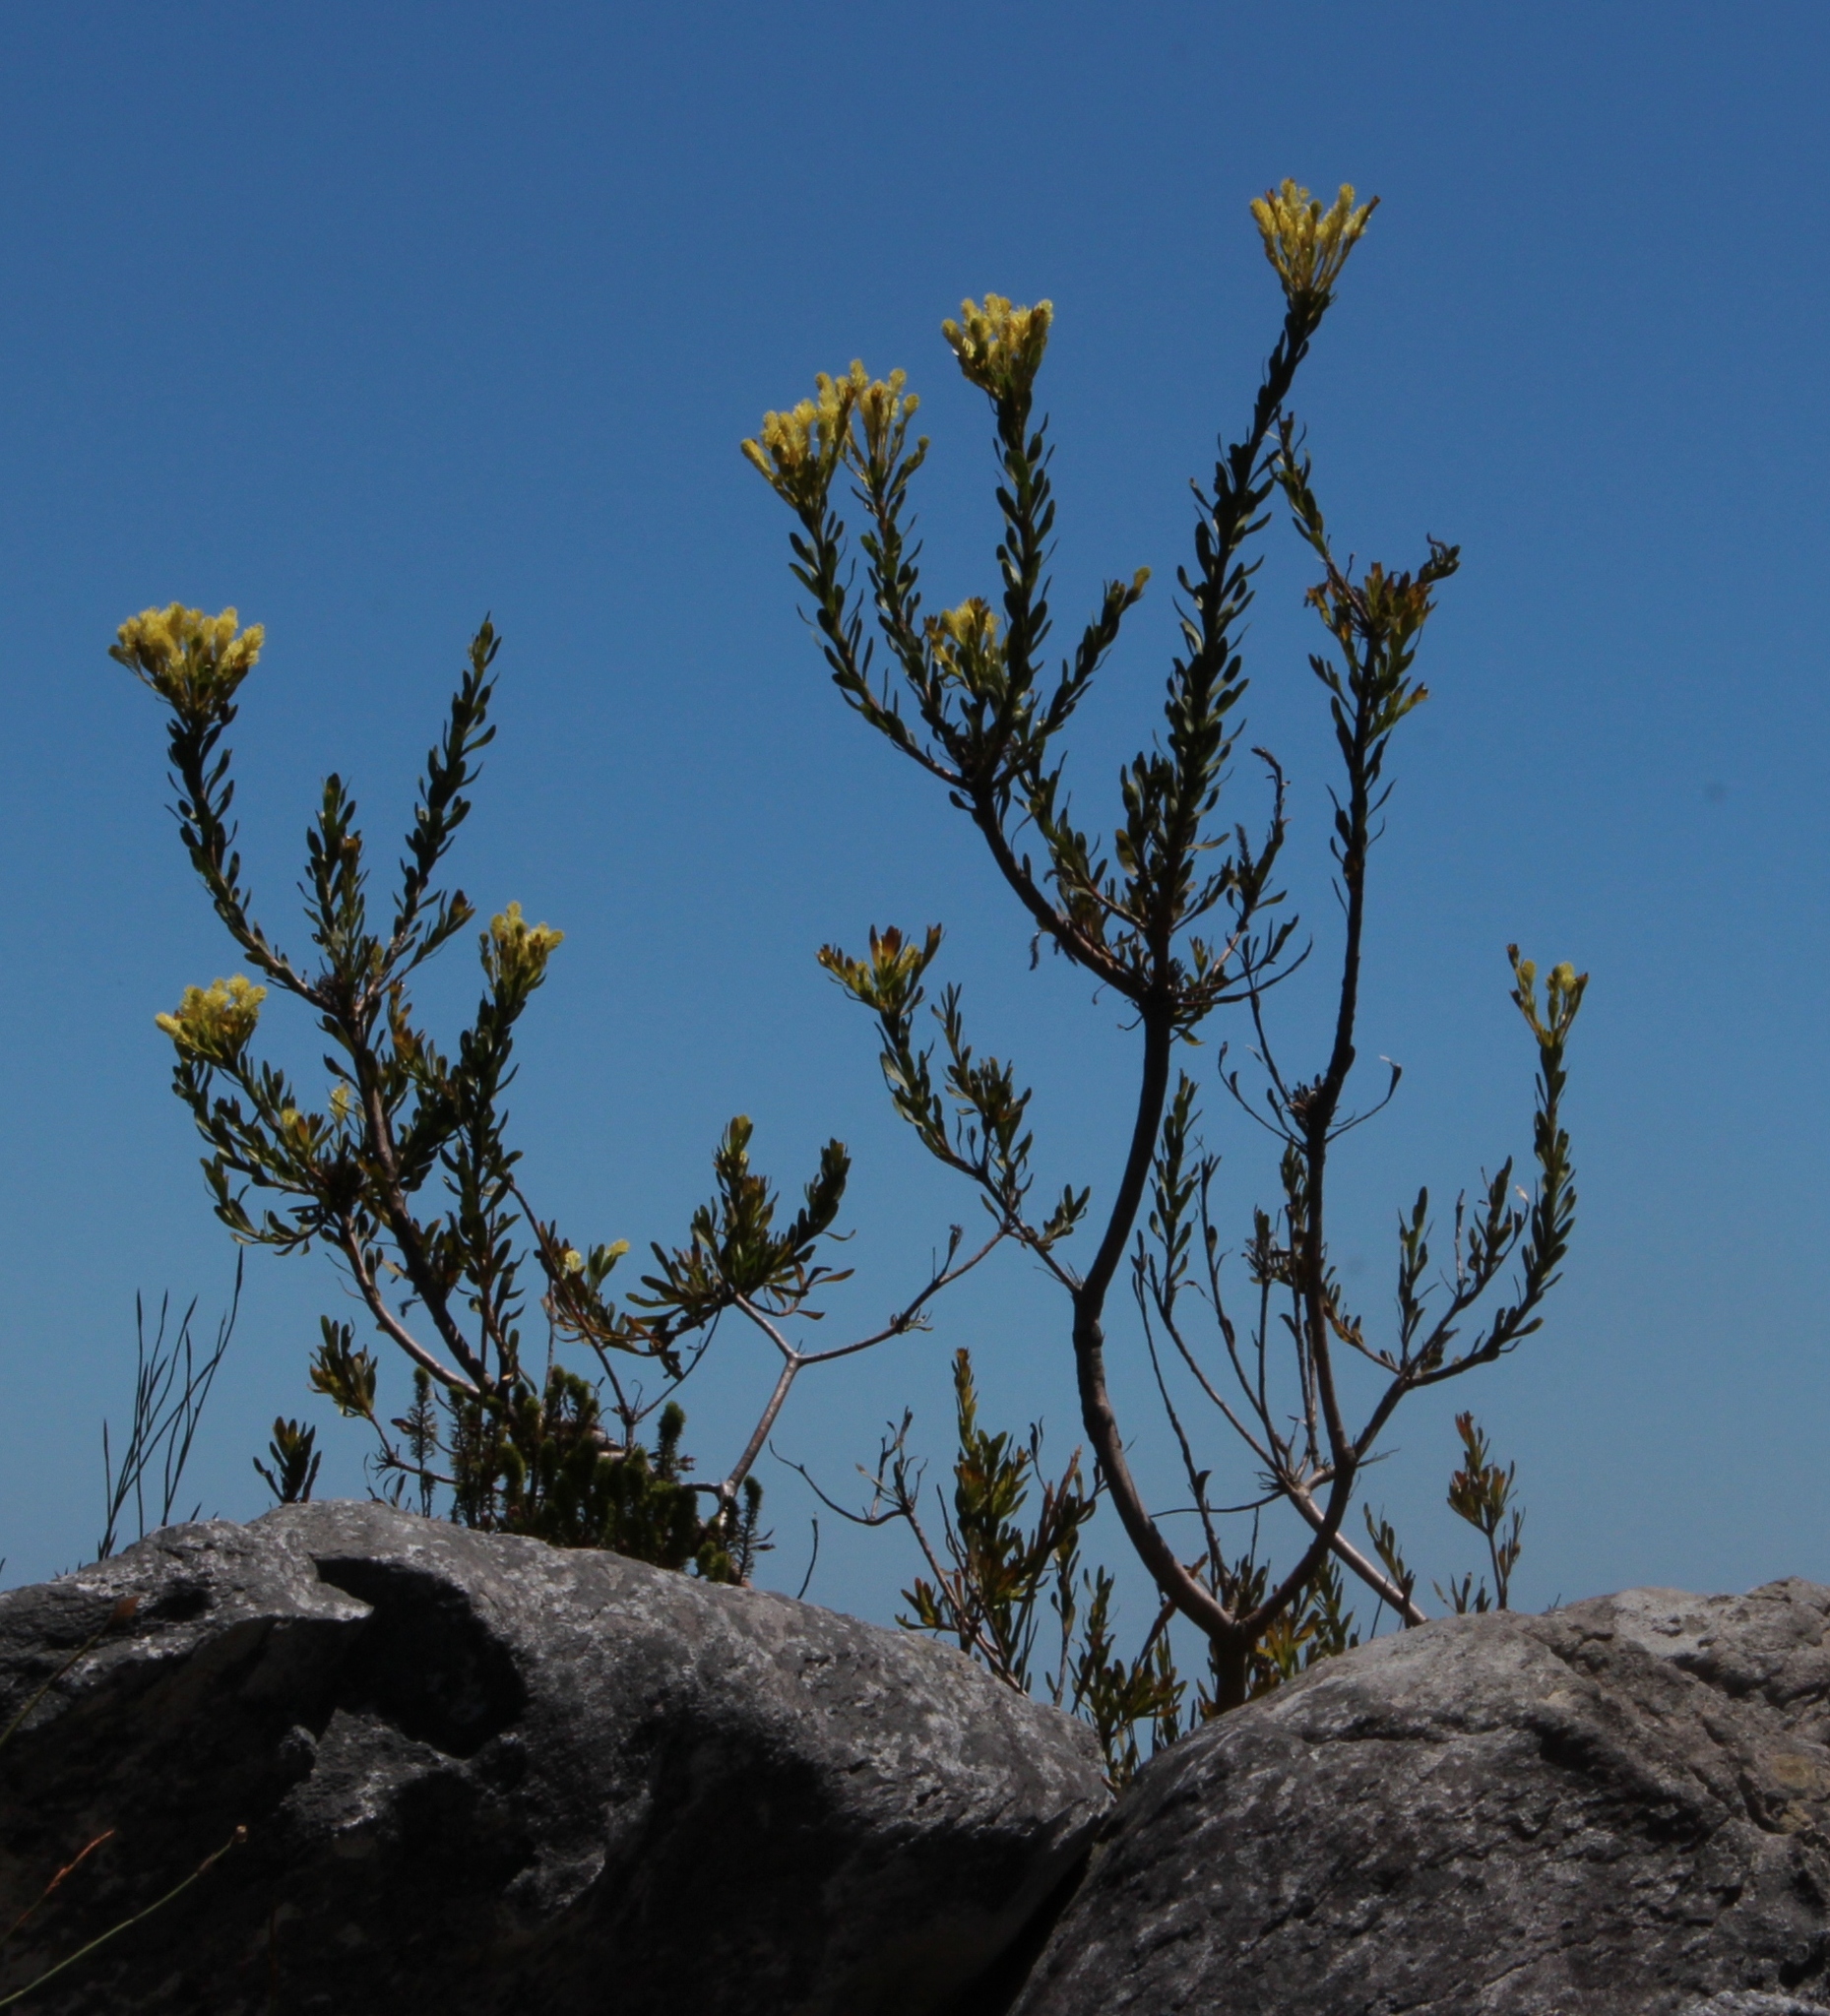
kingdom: Plantae
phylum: Tracheophyta
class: Magnoliopsida
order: Proteales
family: Proteaceae
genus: Aulax
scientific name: Aulax umbellata
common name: Broad-leaf featherbush
